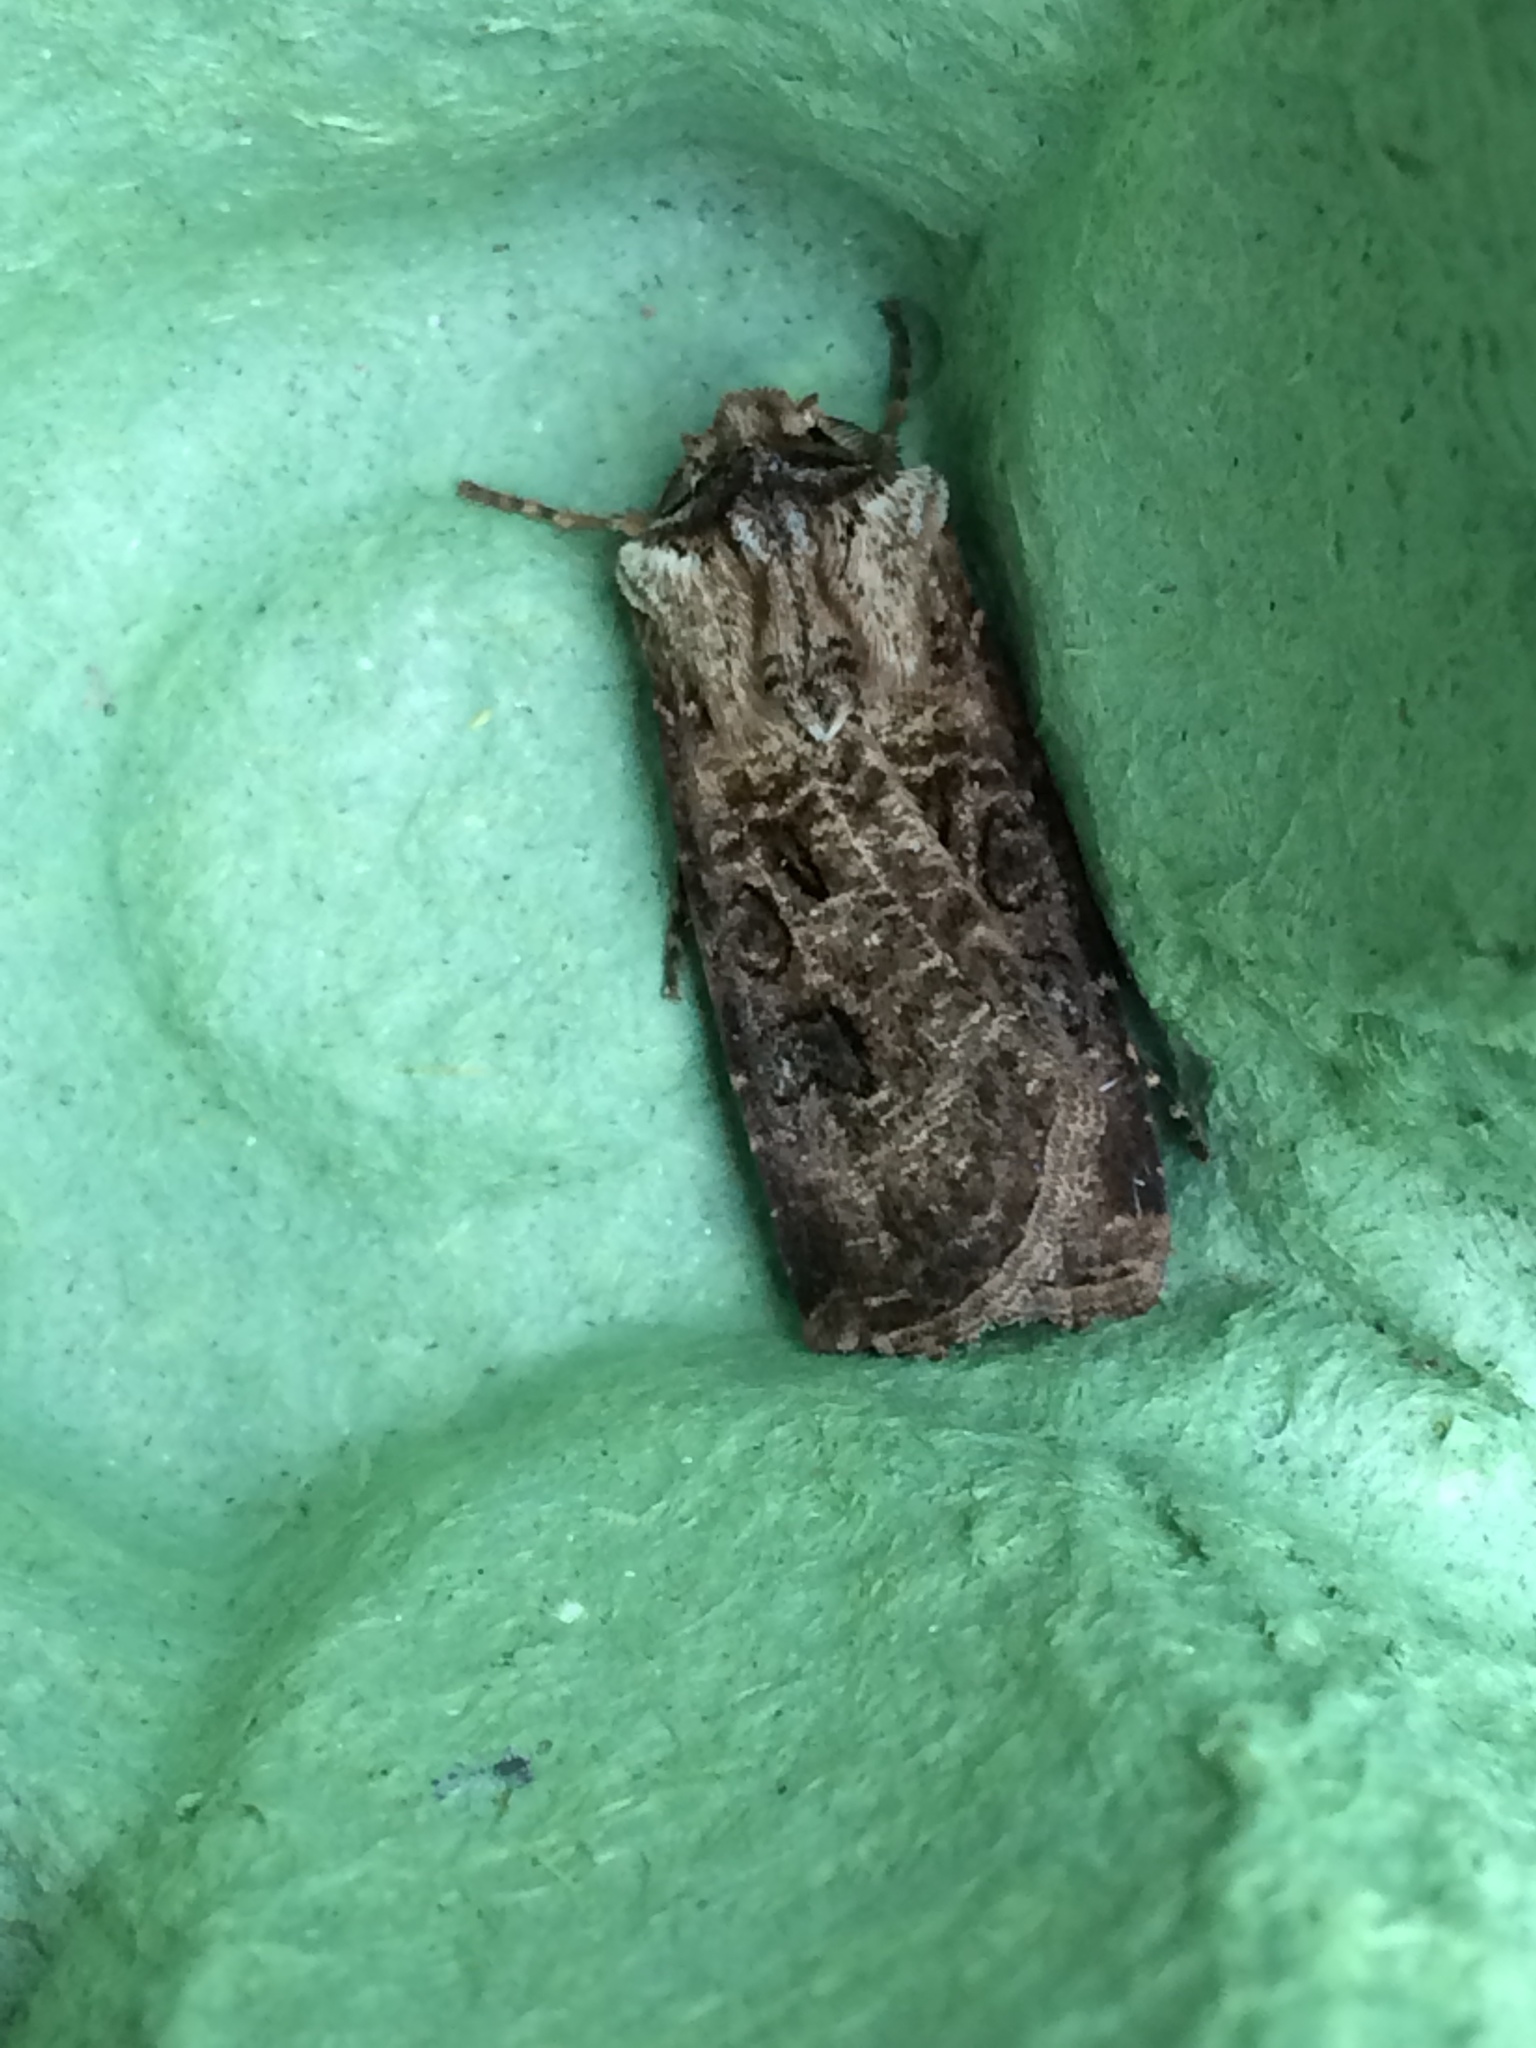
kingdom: Animalia
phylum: Arthropoda
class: Insecta
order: Lepidoptera
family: Noctuidae
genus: Agrotis
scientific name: Agrotis clavis
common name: Heart and club
